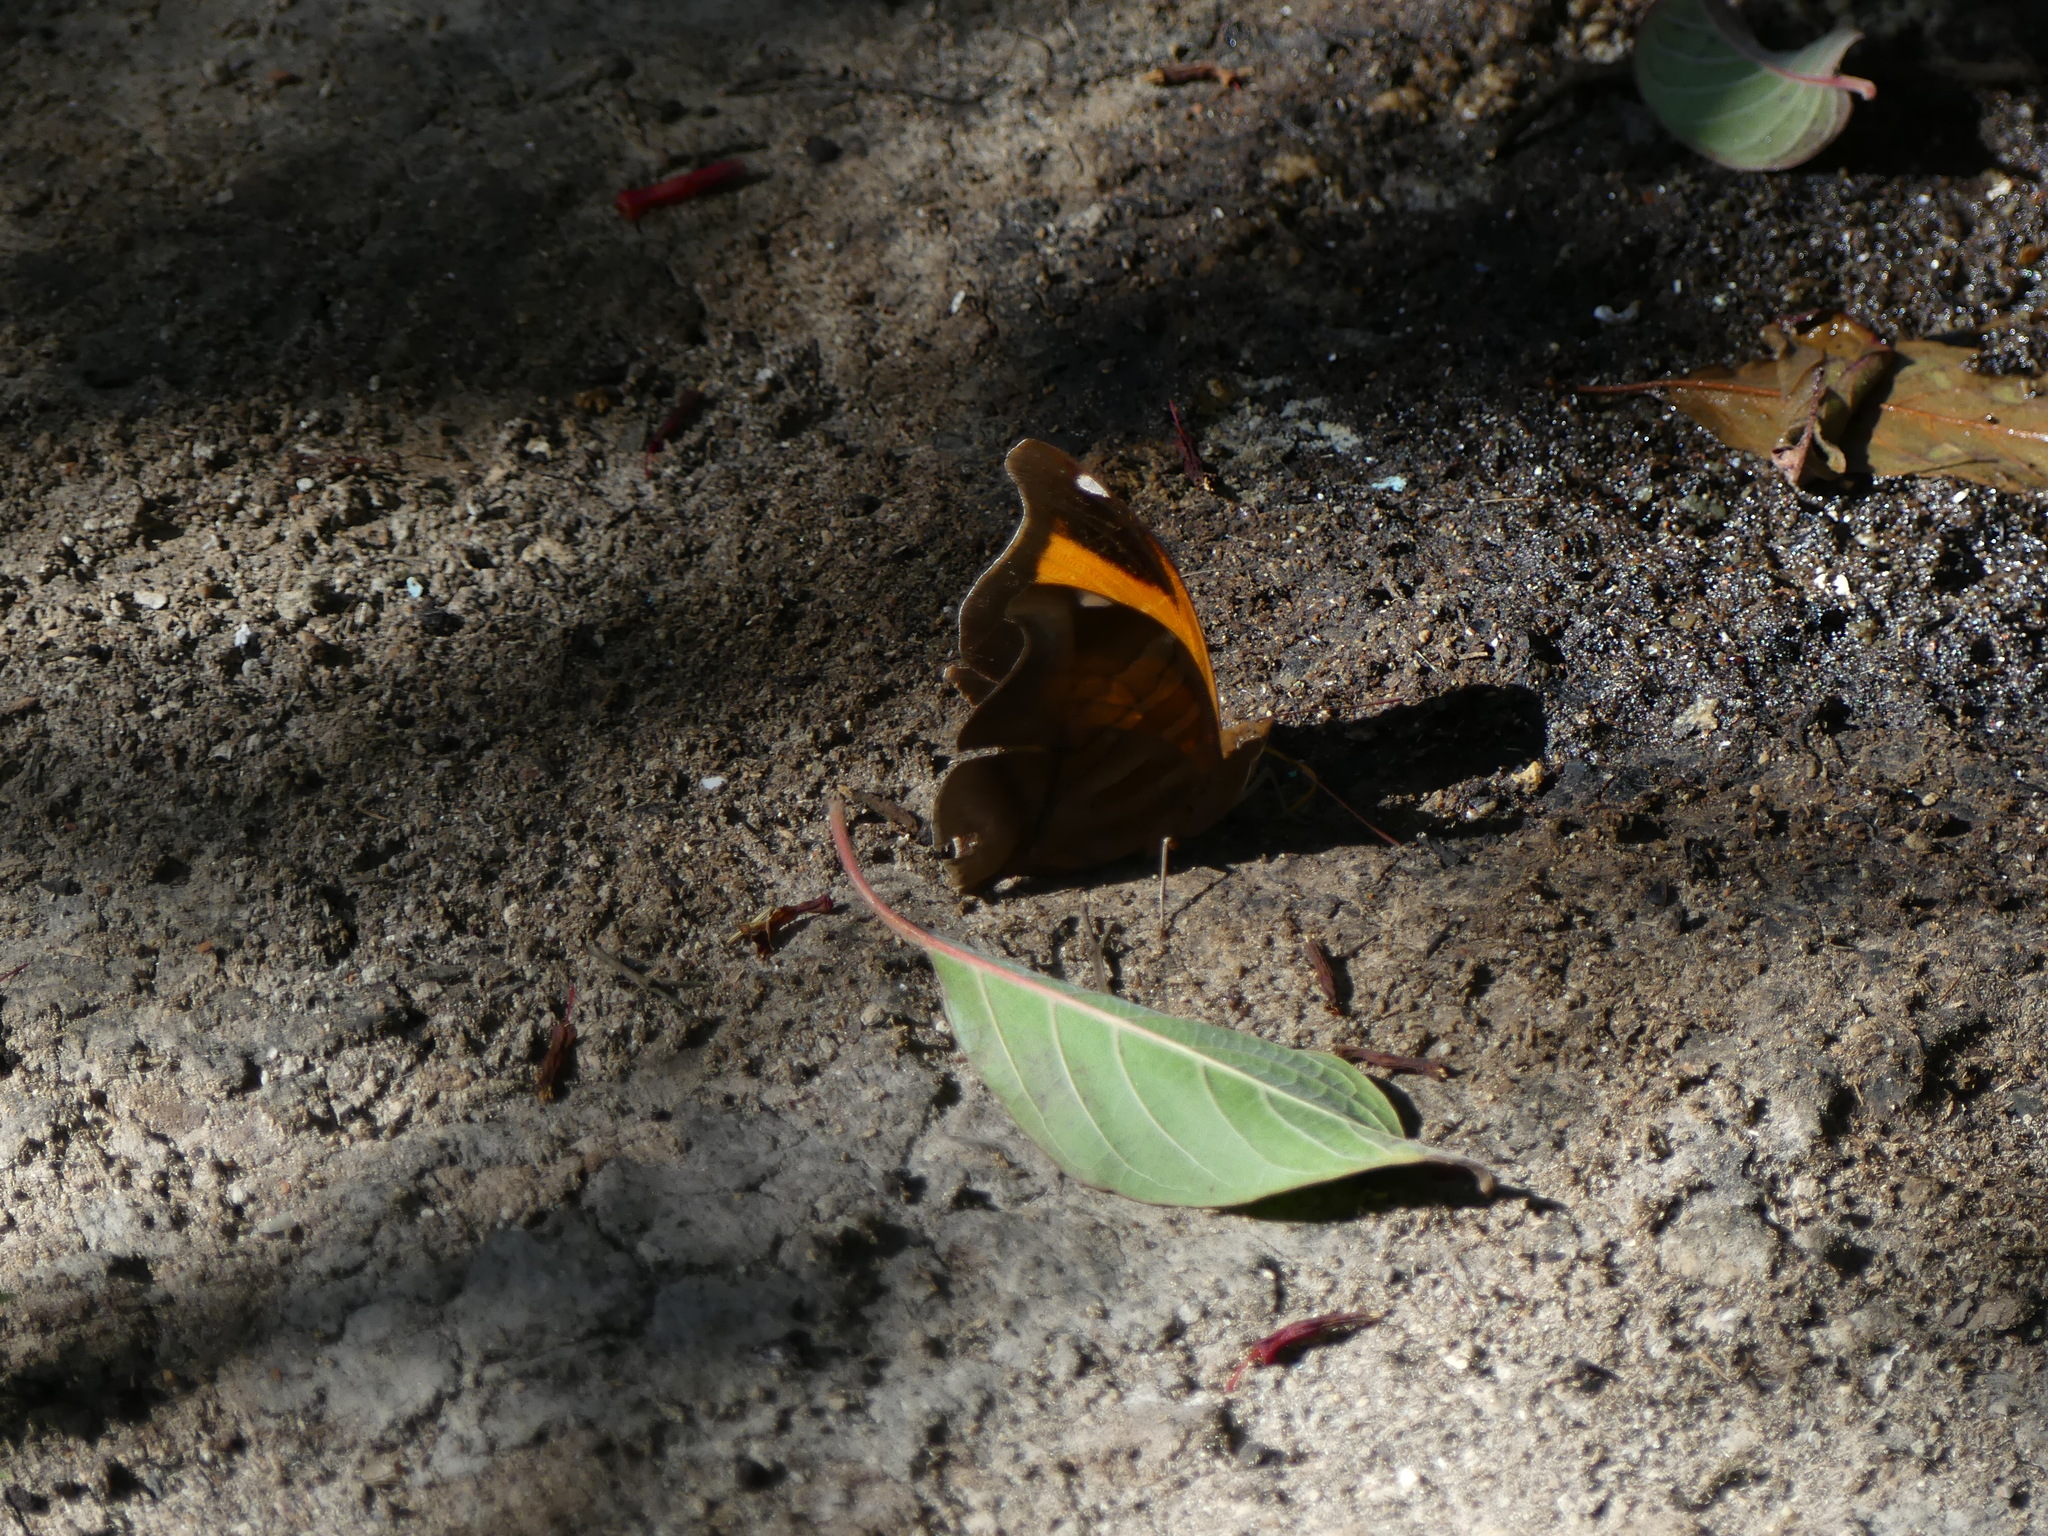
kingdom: Animalia
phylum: Arthropoda
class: Insecta
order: Lepidoptera
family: Nymphalidae
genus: Historis
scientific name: Historis odius
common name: Orion cecropian
